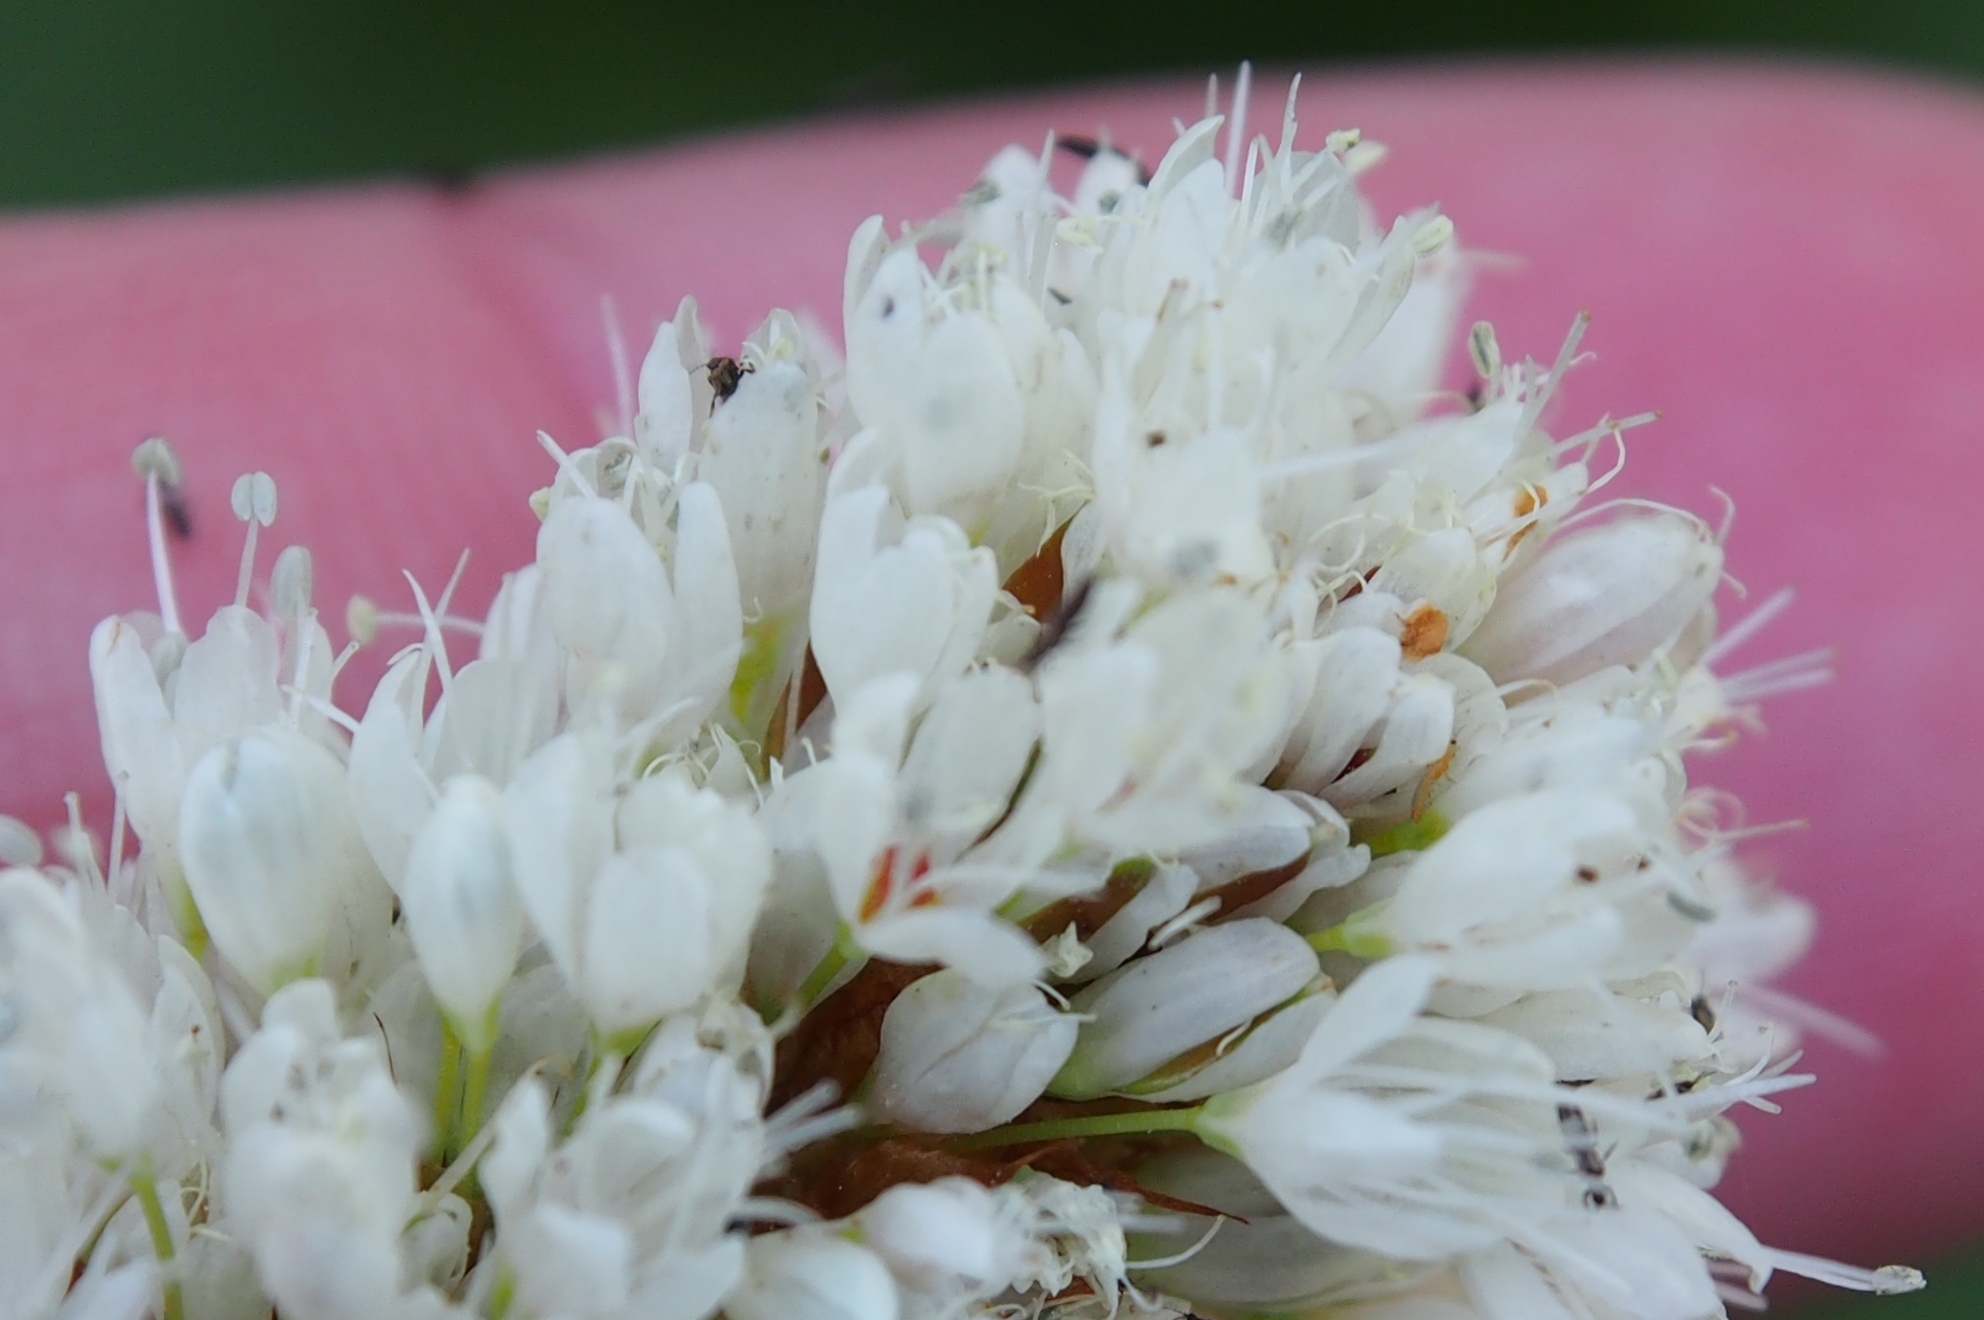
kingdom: Plantae
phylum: Tracheophyta
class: Magnoliopsida
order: Caryophyllales
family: Polygonaceae
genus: Bistorta
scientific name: Bistorta bistortoides
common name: American bistort
